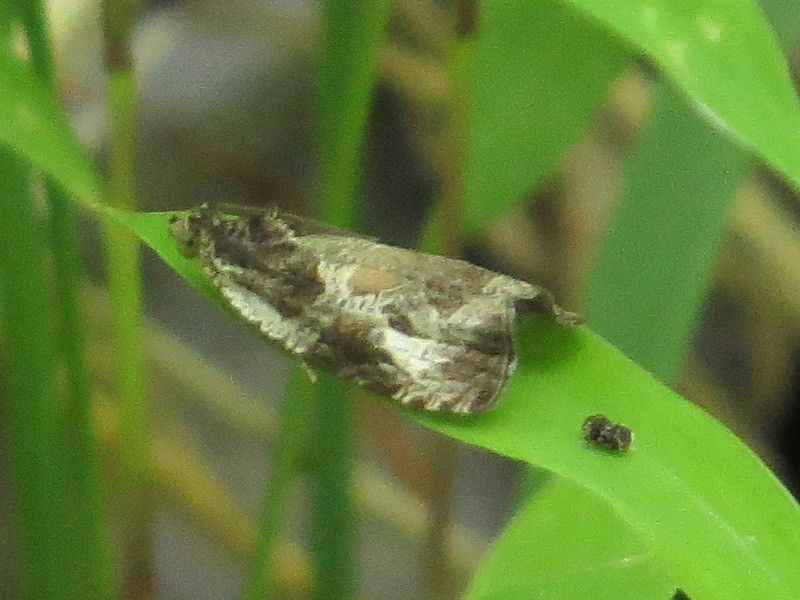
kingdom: Animalia
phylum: Arthropoda
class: Insecta
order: Lepidoptera
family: Tortricidae
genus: Olethreutes
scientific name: Olethreutes connectum
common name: Bunchberry leaffolder moth
